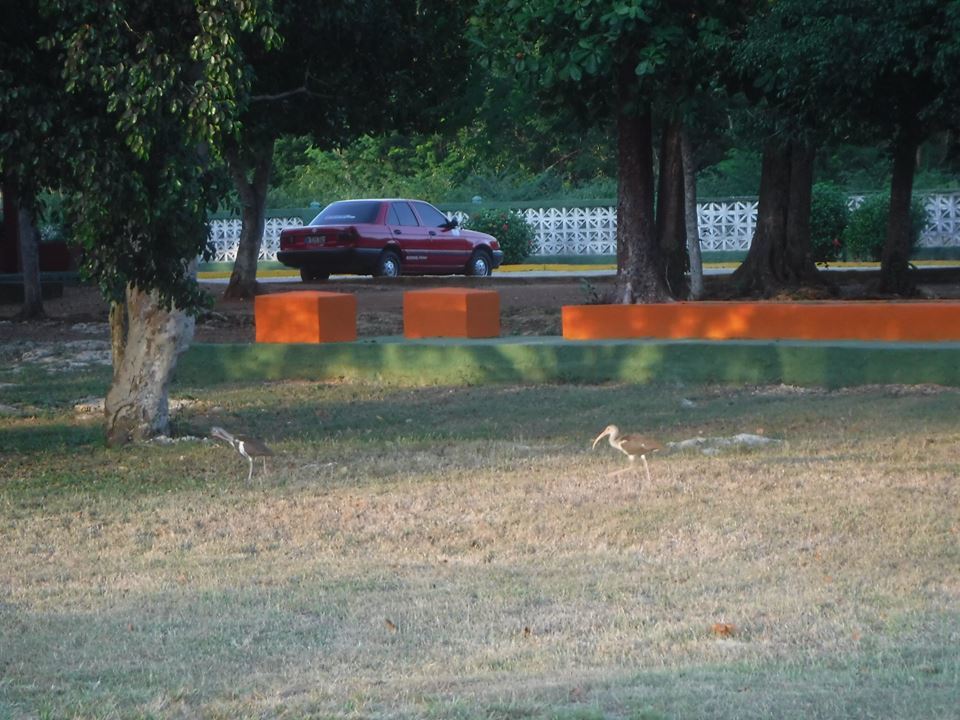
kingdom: Animalia
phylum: Chordata
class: Aves
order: Pelecaniformes
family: Threskiornithidae
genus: Eudocimus
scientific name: Eudocimus albus
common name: White ibis
